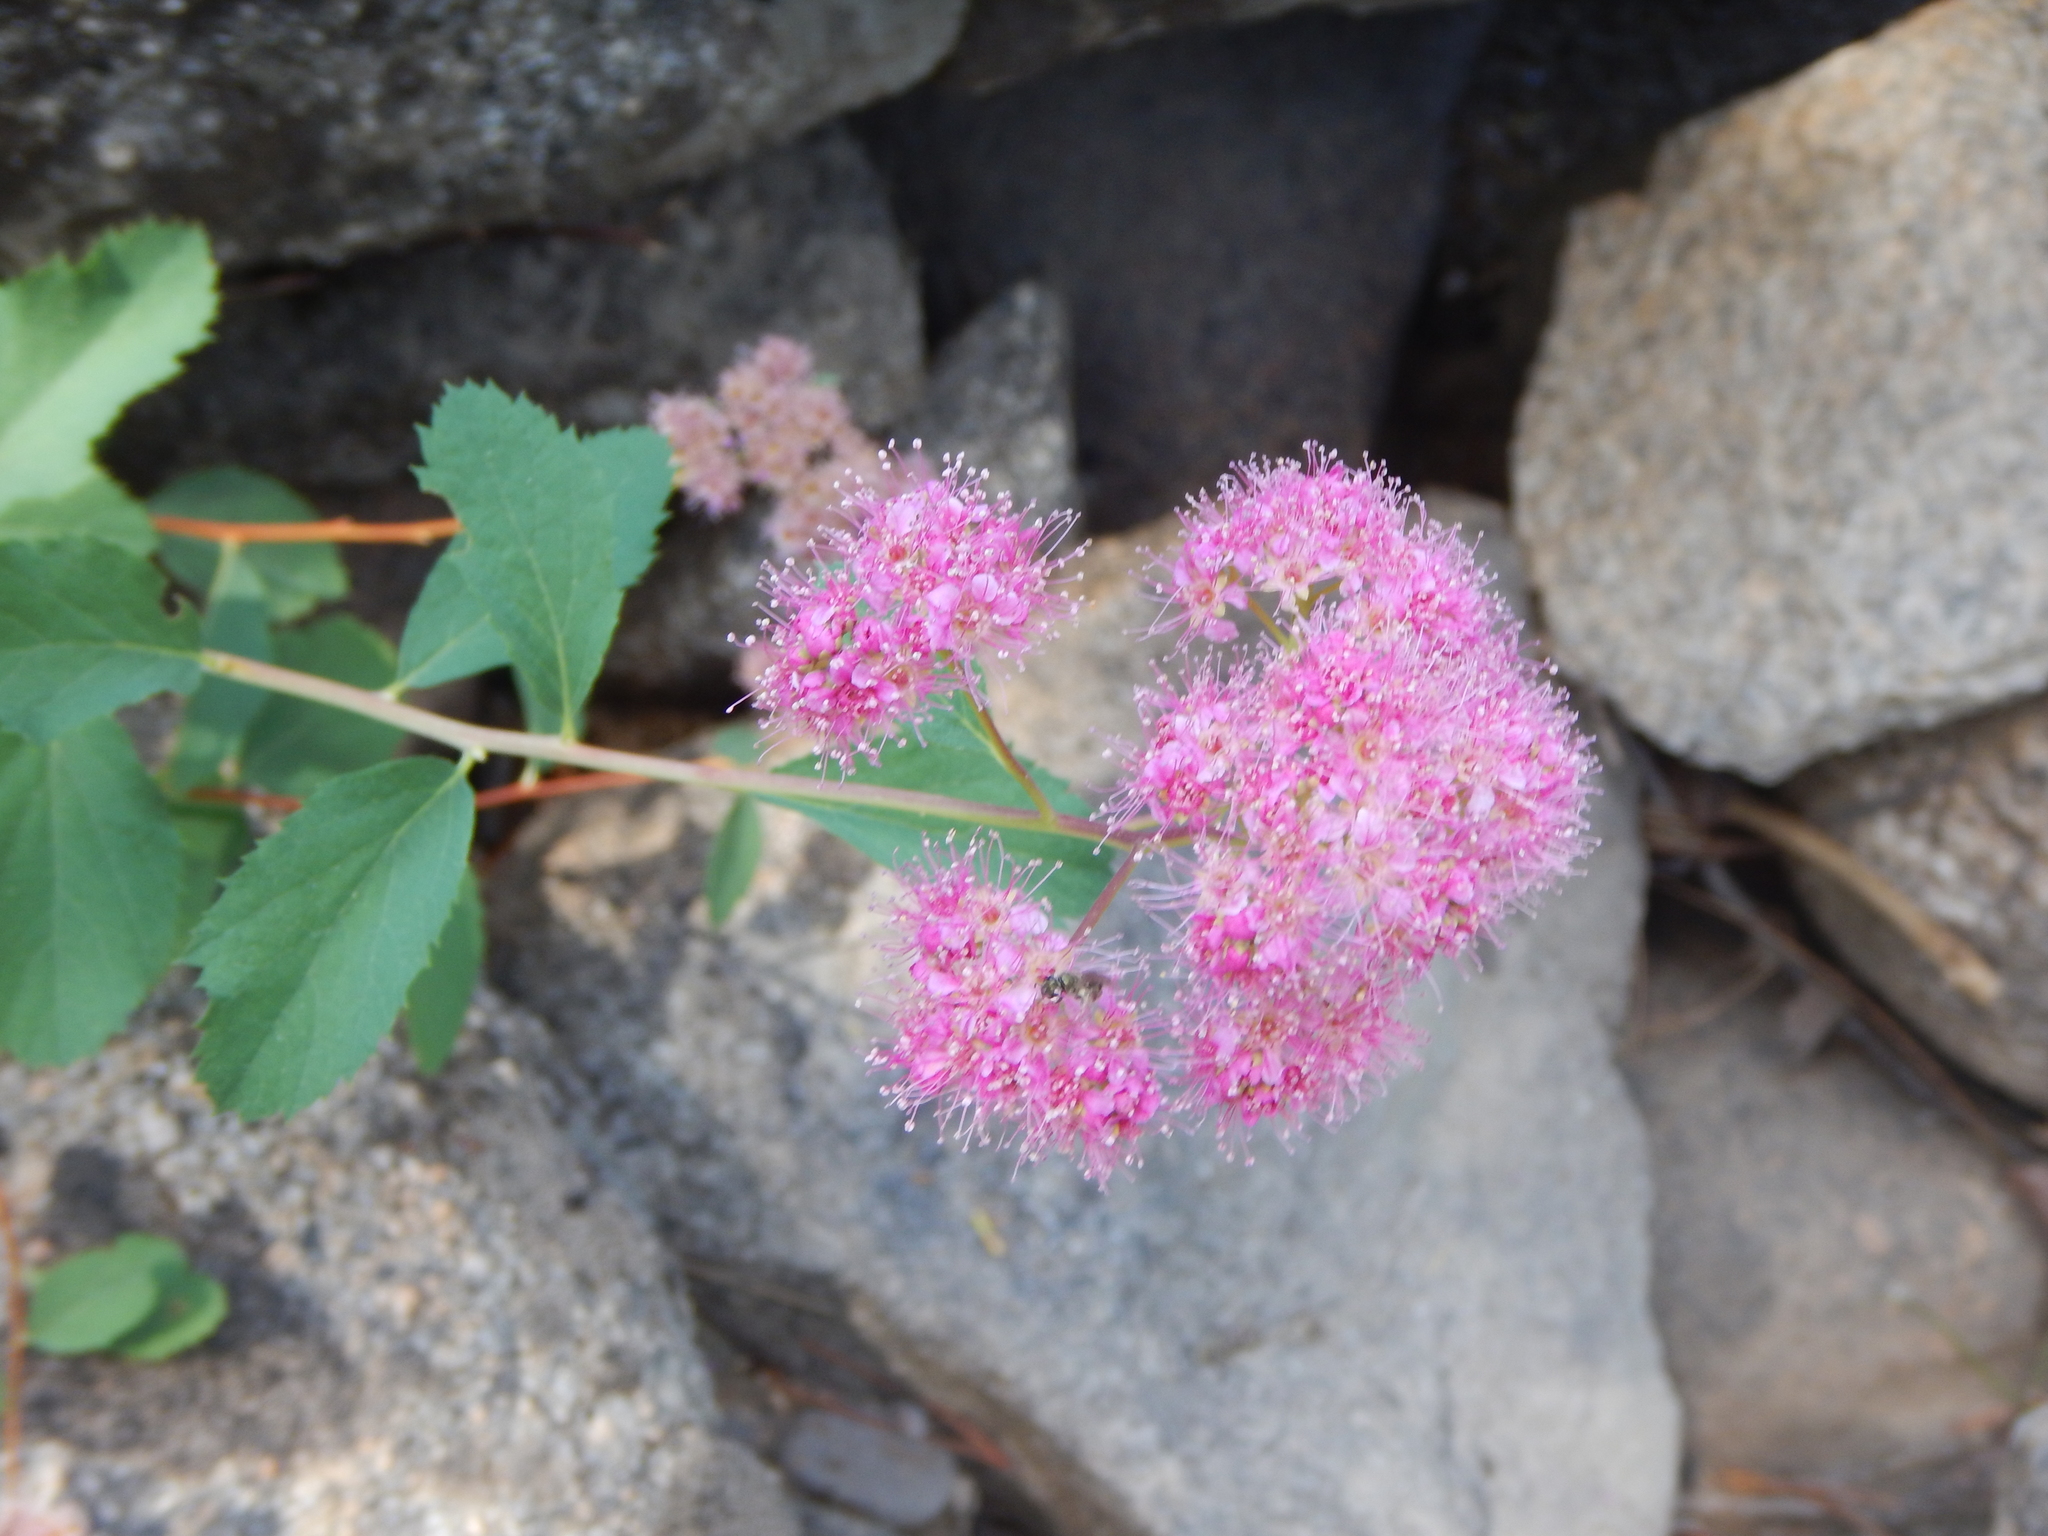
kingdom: Plantae
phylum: Tracheophyta
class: Magnoliopsida
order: Rosales
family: Rosaceae
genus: Spiraea
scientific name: Spiraea splendens
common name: Subalpine meadowsweet
